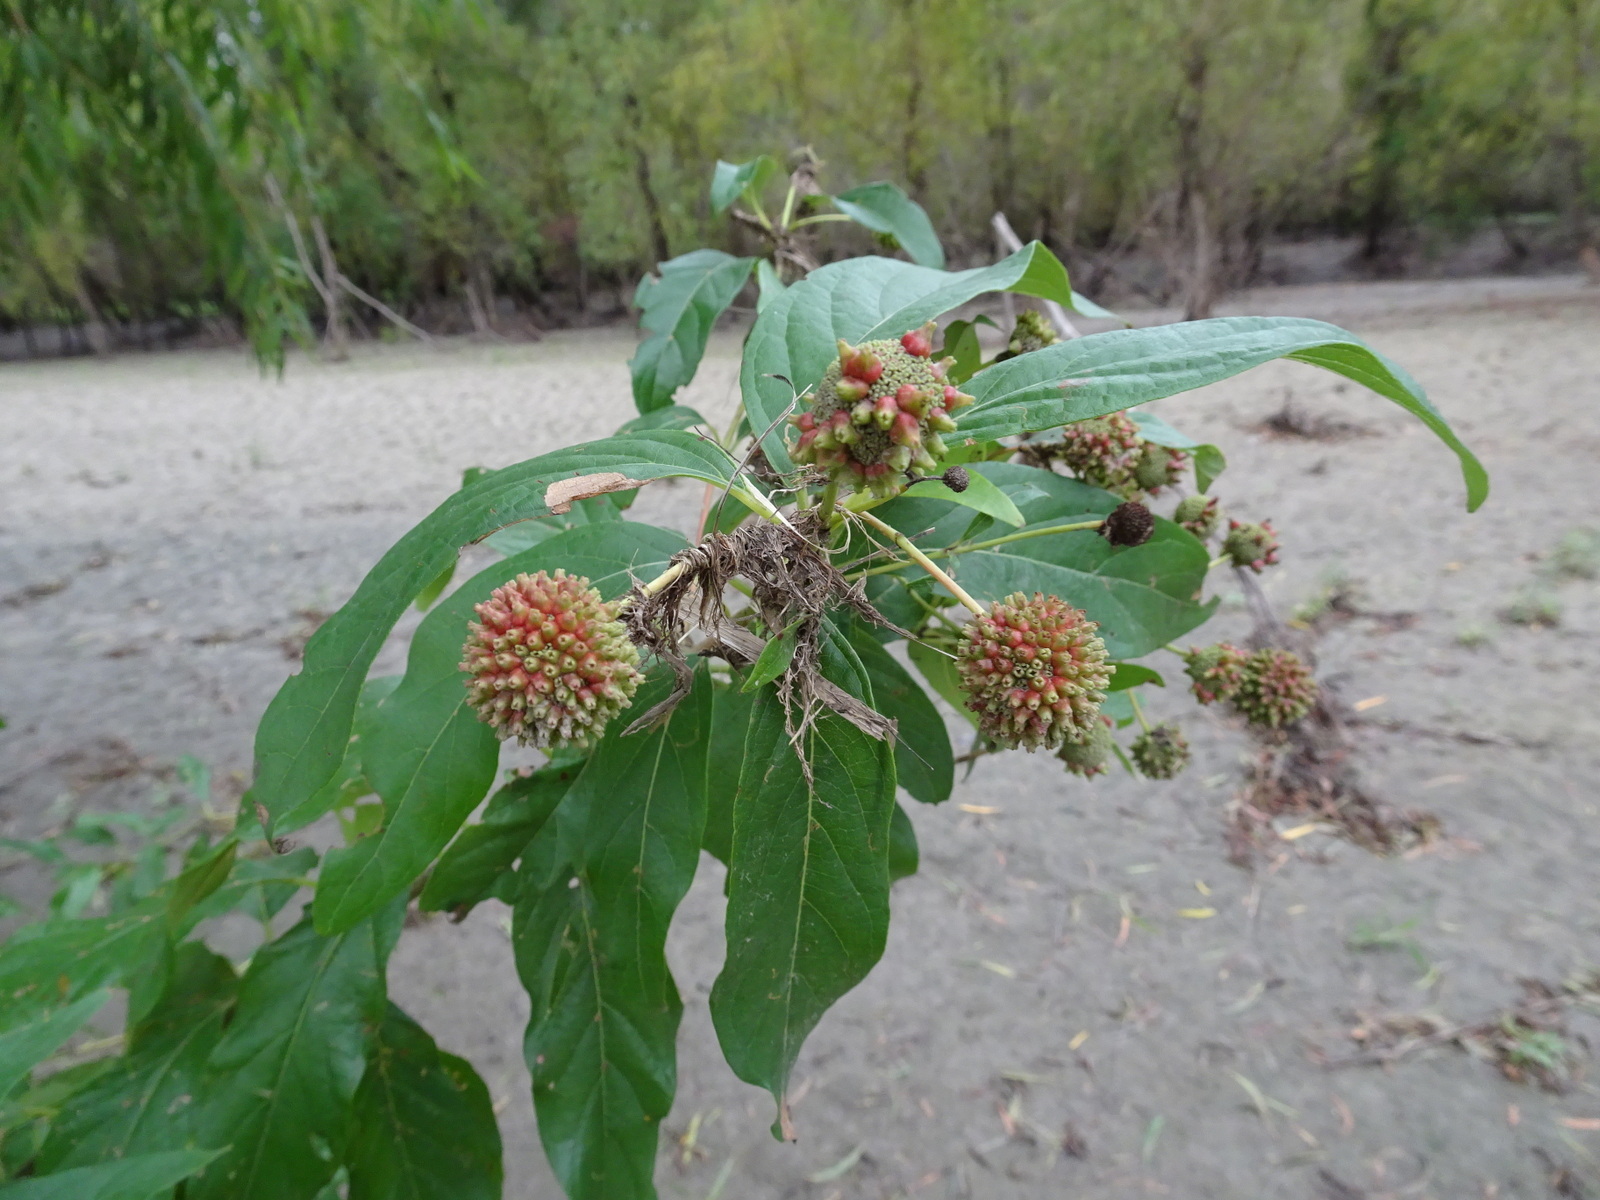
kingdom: Plantae
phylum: Tracheophyta
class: Magnoliopsida
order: Gentianales
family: Rubiaceae
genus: Cephalanthus
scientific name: Cephalanthus occidentalis
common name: Button-willow
